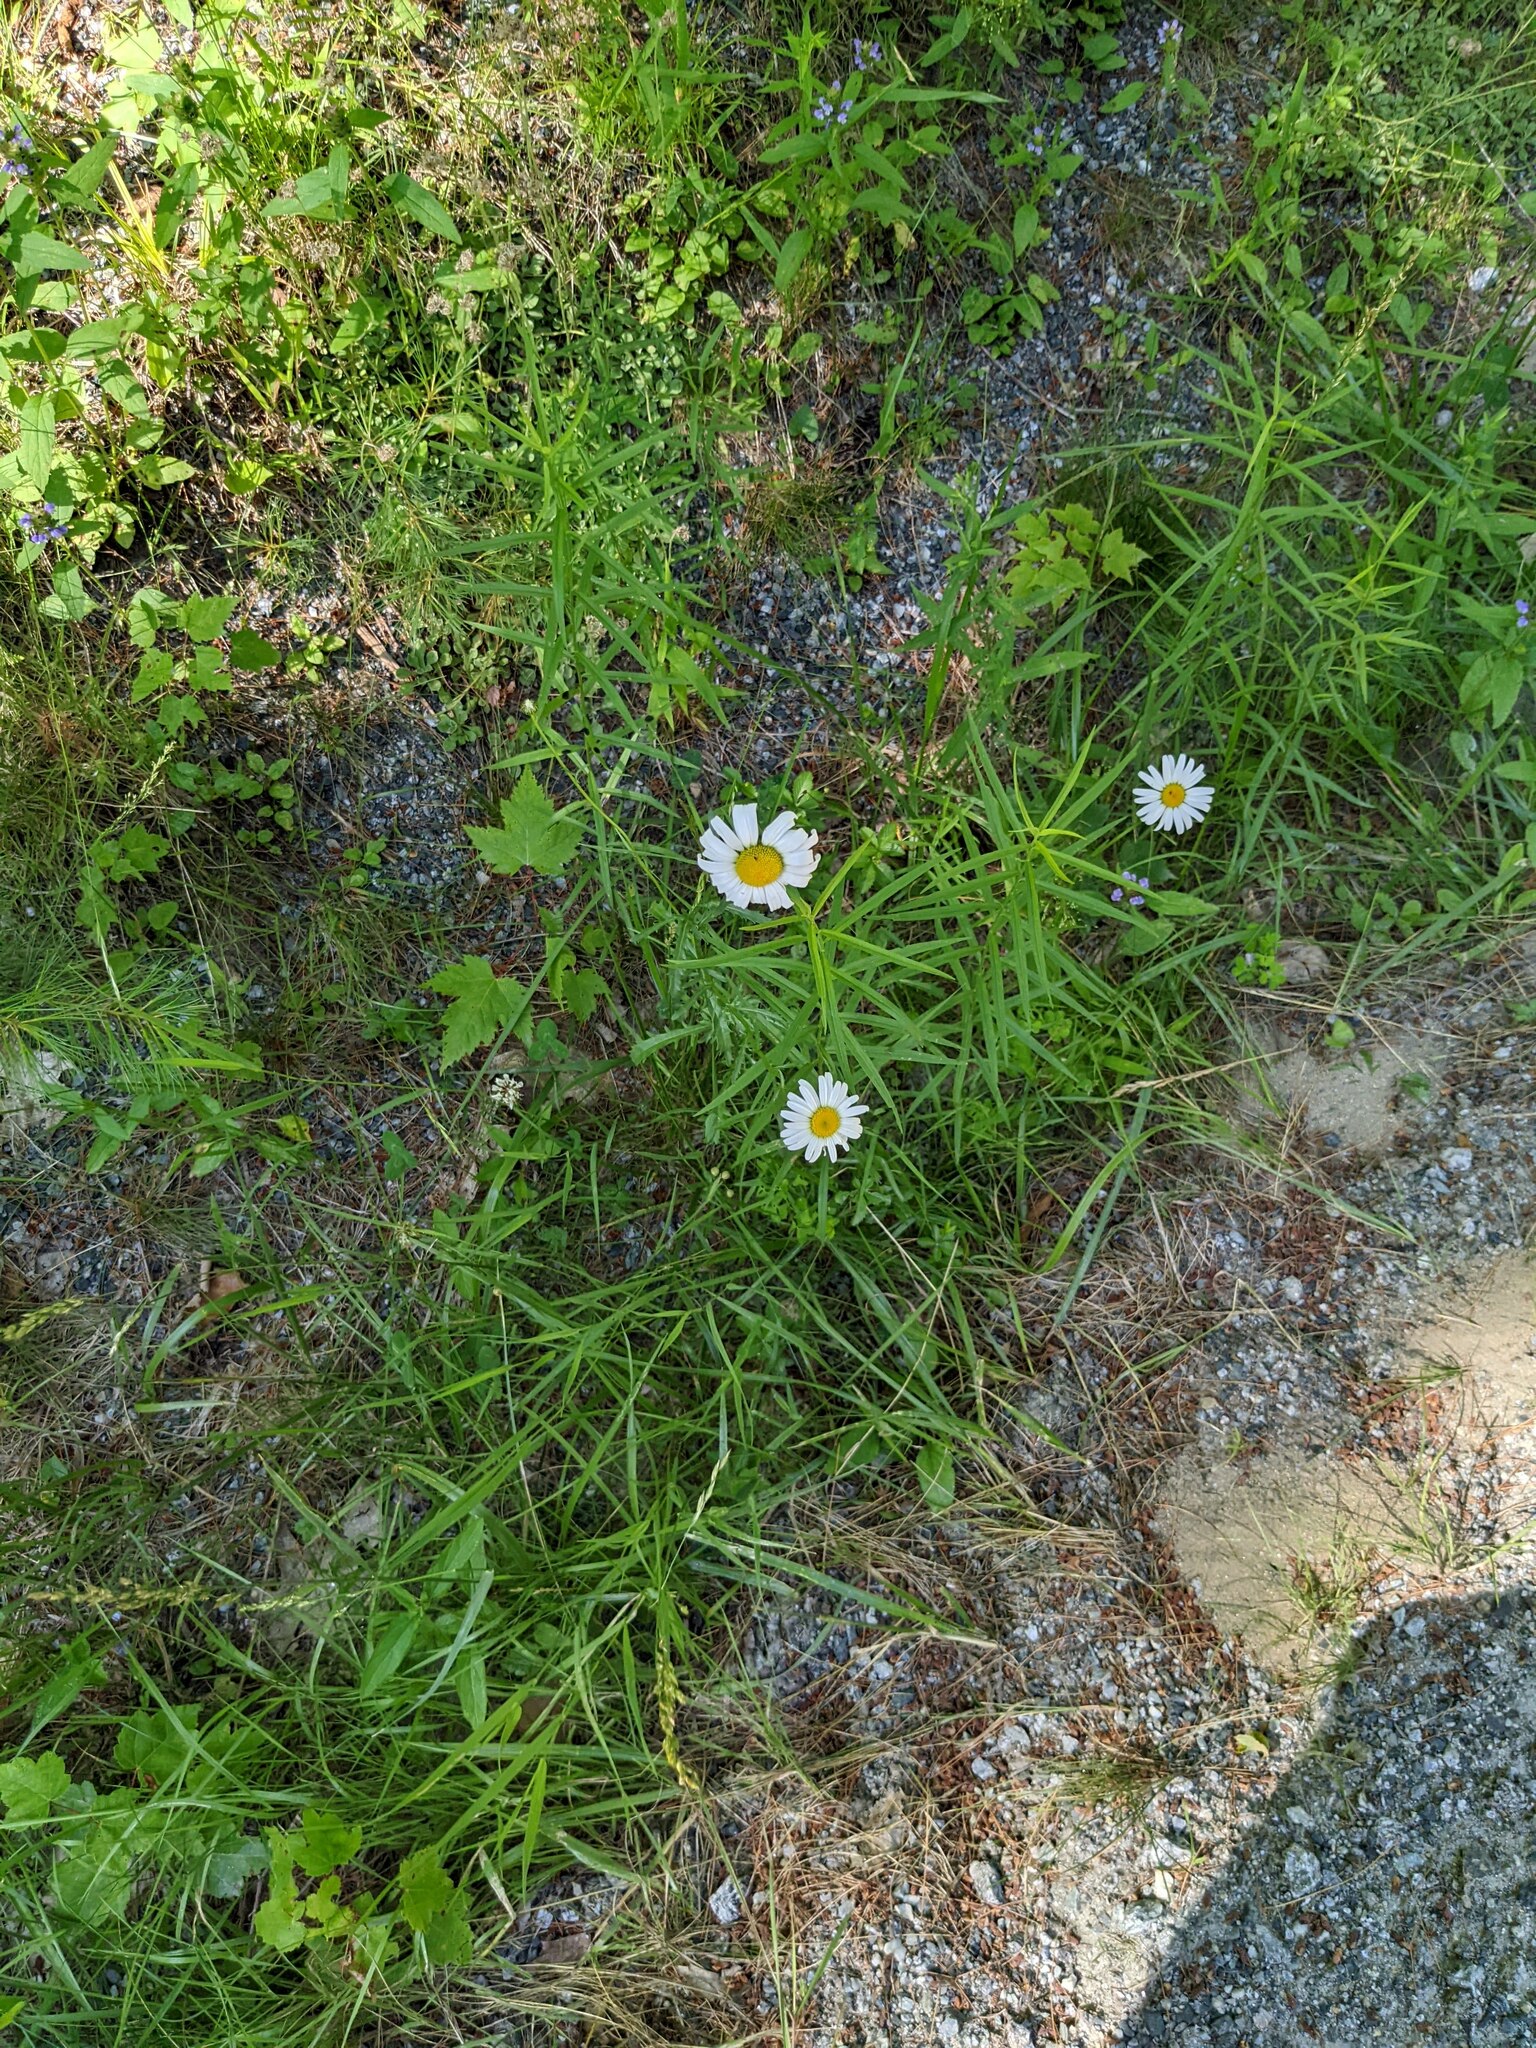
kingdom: Plantae
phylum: Tracheophyta
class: Magnoliopsida
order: Asterales
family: Asteraceae
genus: Leucanthemum
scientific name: Leucanthemum vulgare
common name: Oxeye daisy
